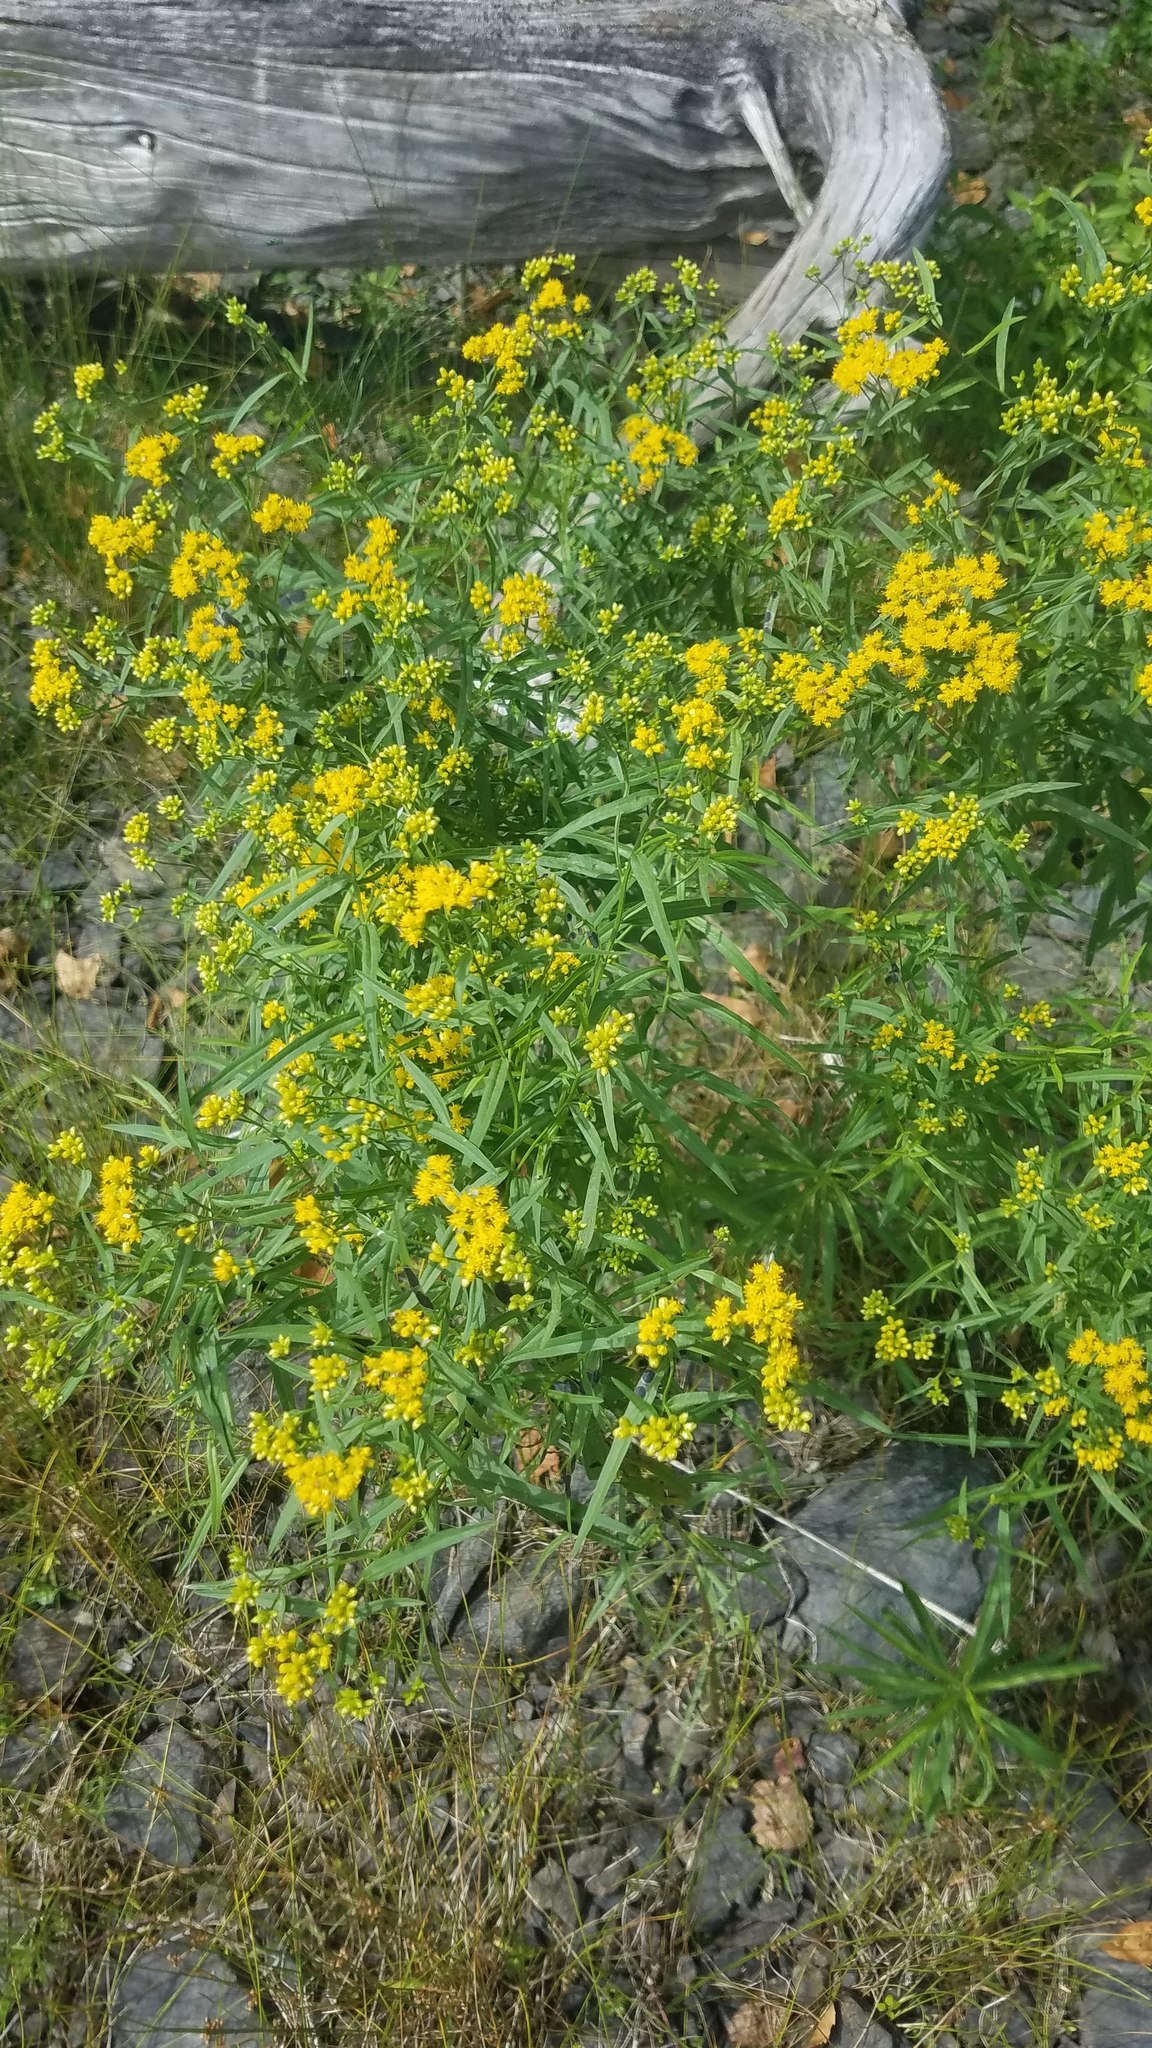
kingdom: Plantae
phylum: Tracheophyta
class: Magnoliopsida
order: Asterales
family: Asteraceae
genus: Euthamia
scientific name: Euthamia graminifolia
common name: Common goldentop
